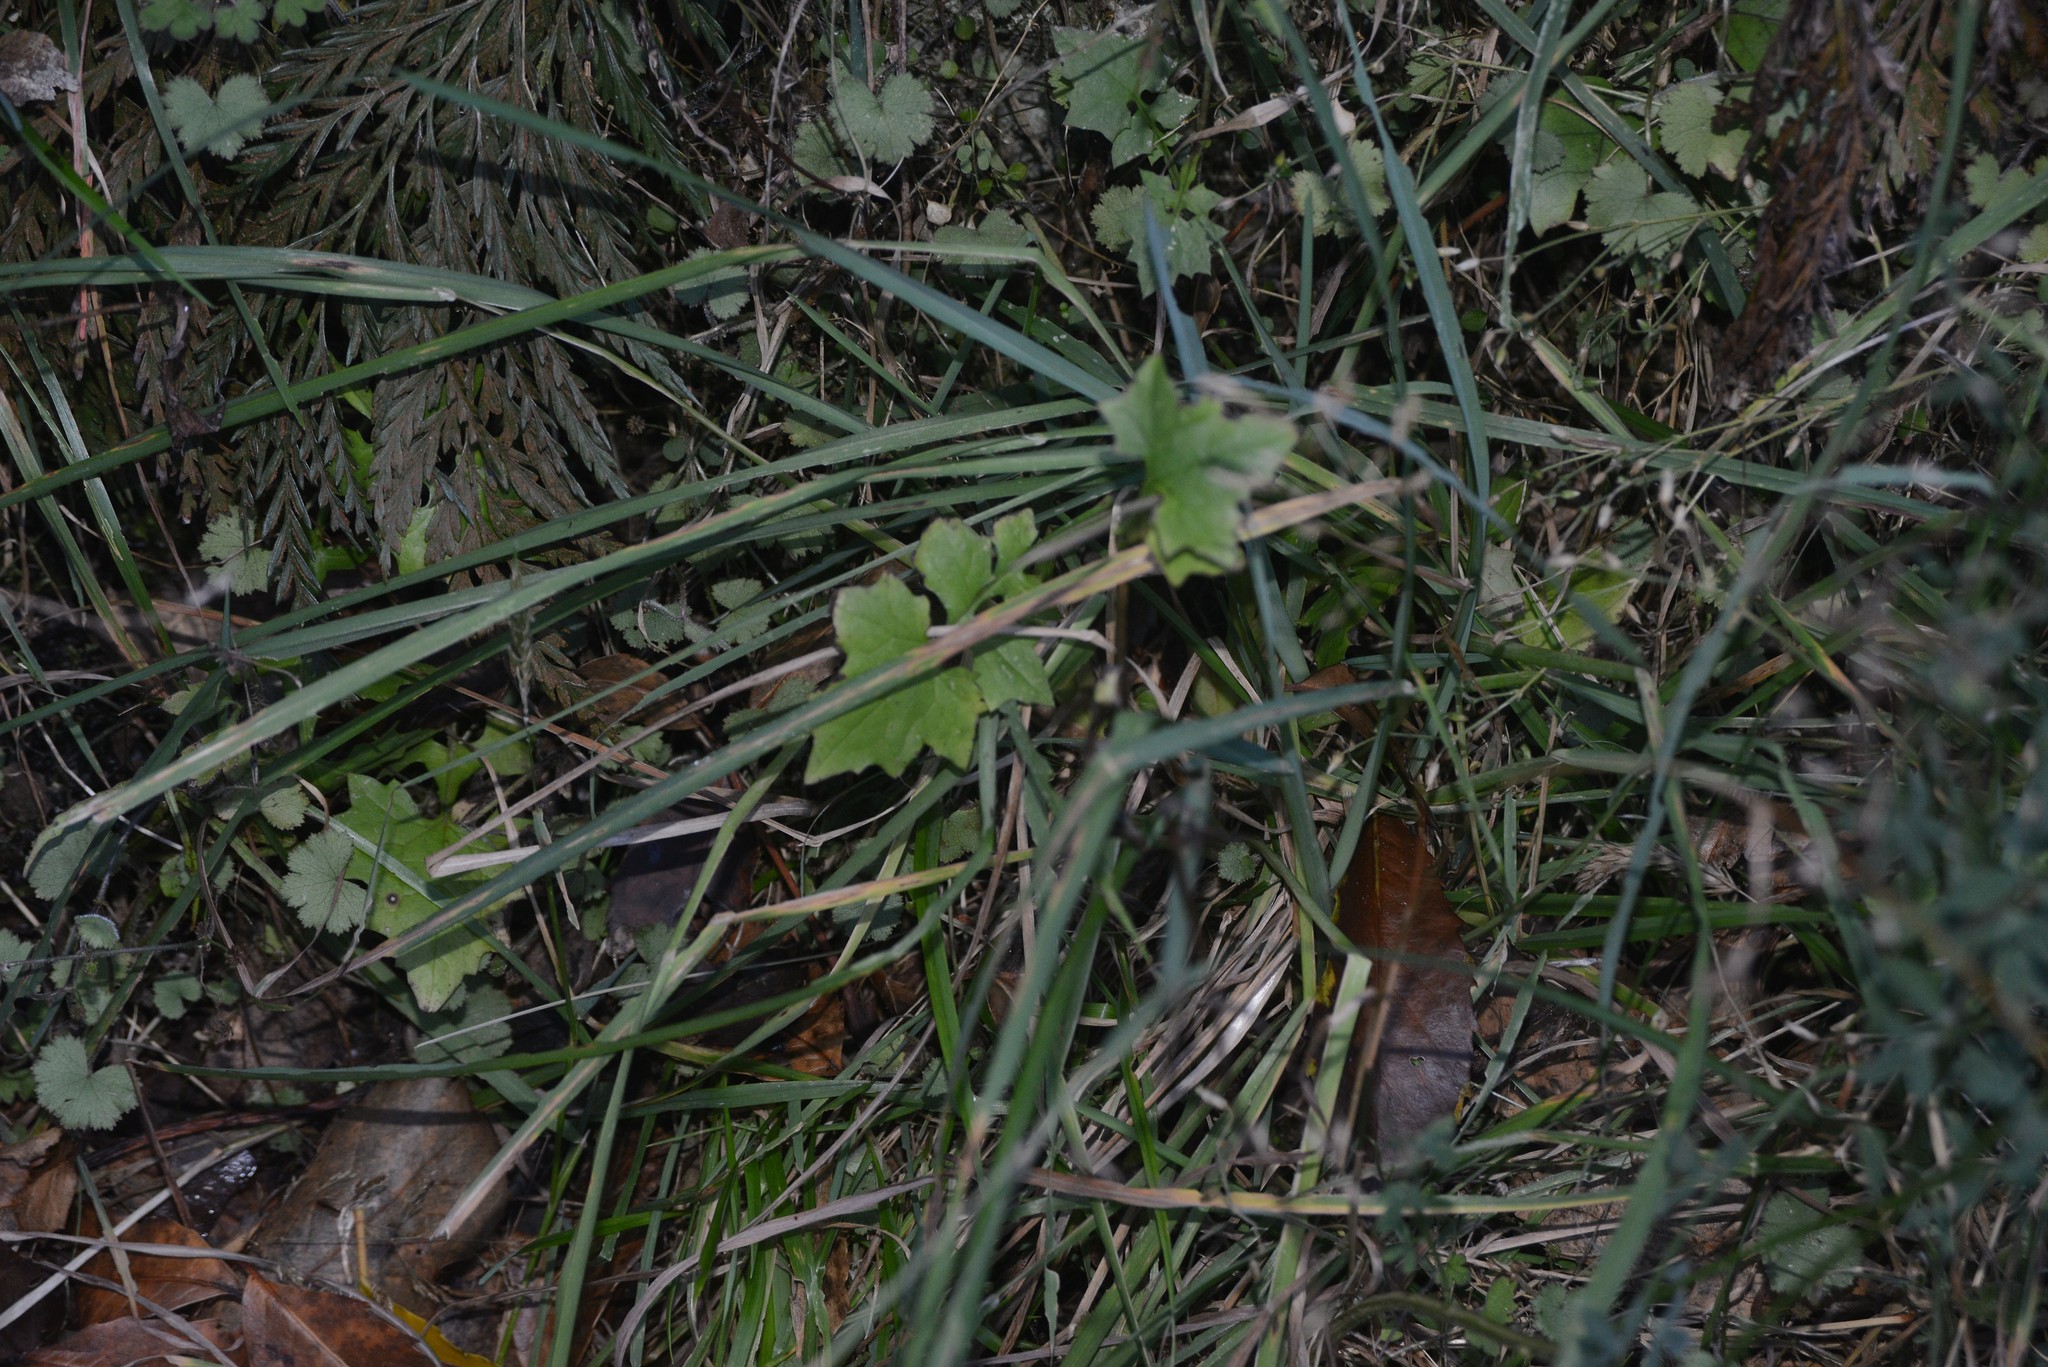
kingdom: Plantae
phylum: Tracheophyta
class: Magnoliopsida
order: Asterales
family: Asteraceae
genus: Mycelis
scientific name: Mycelis muralis
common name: Wall lettuce
